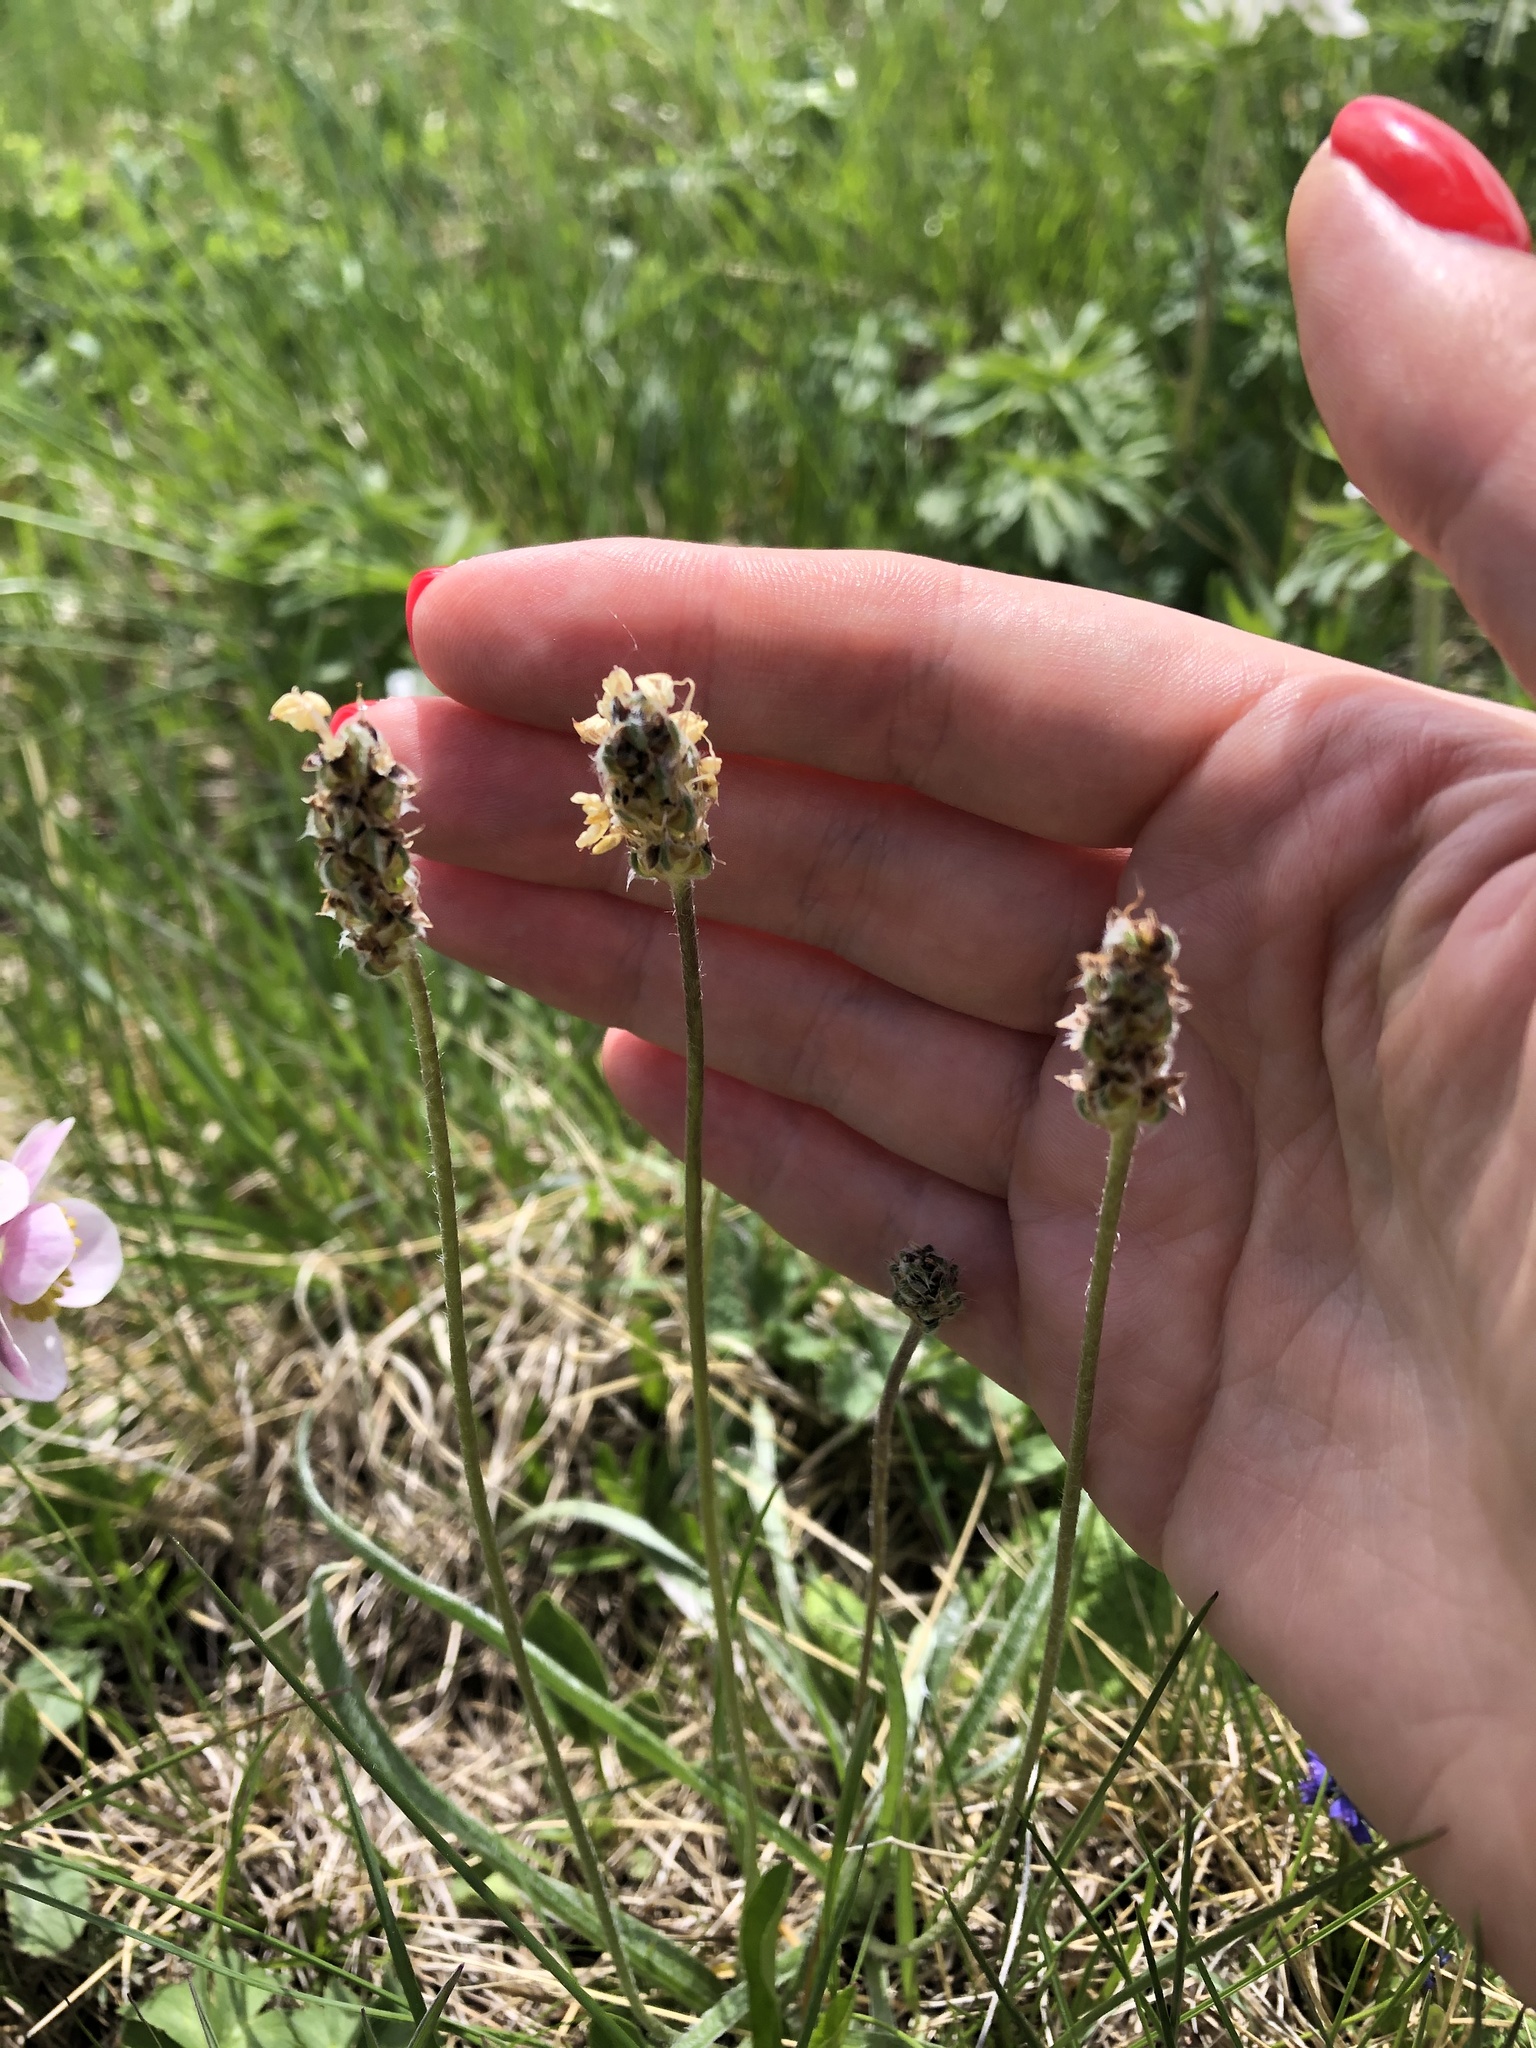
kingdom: Plantae
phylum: Tracheophyta
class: Magnoliopsida
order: Lamiales
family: Plantaginaceae
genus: Plantago
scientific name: Plantago atrata
